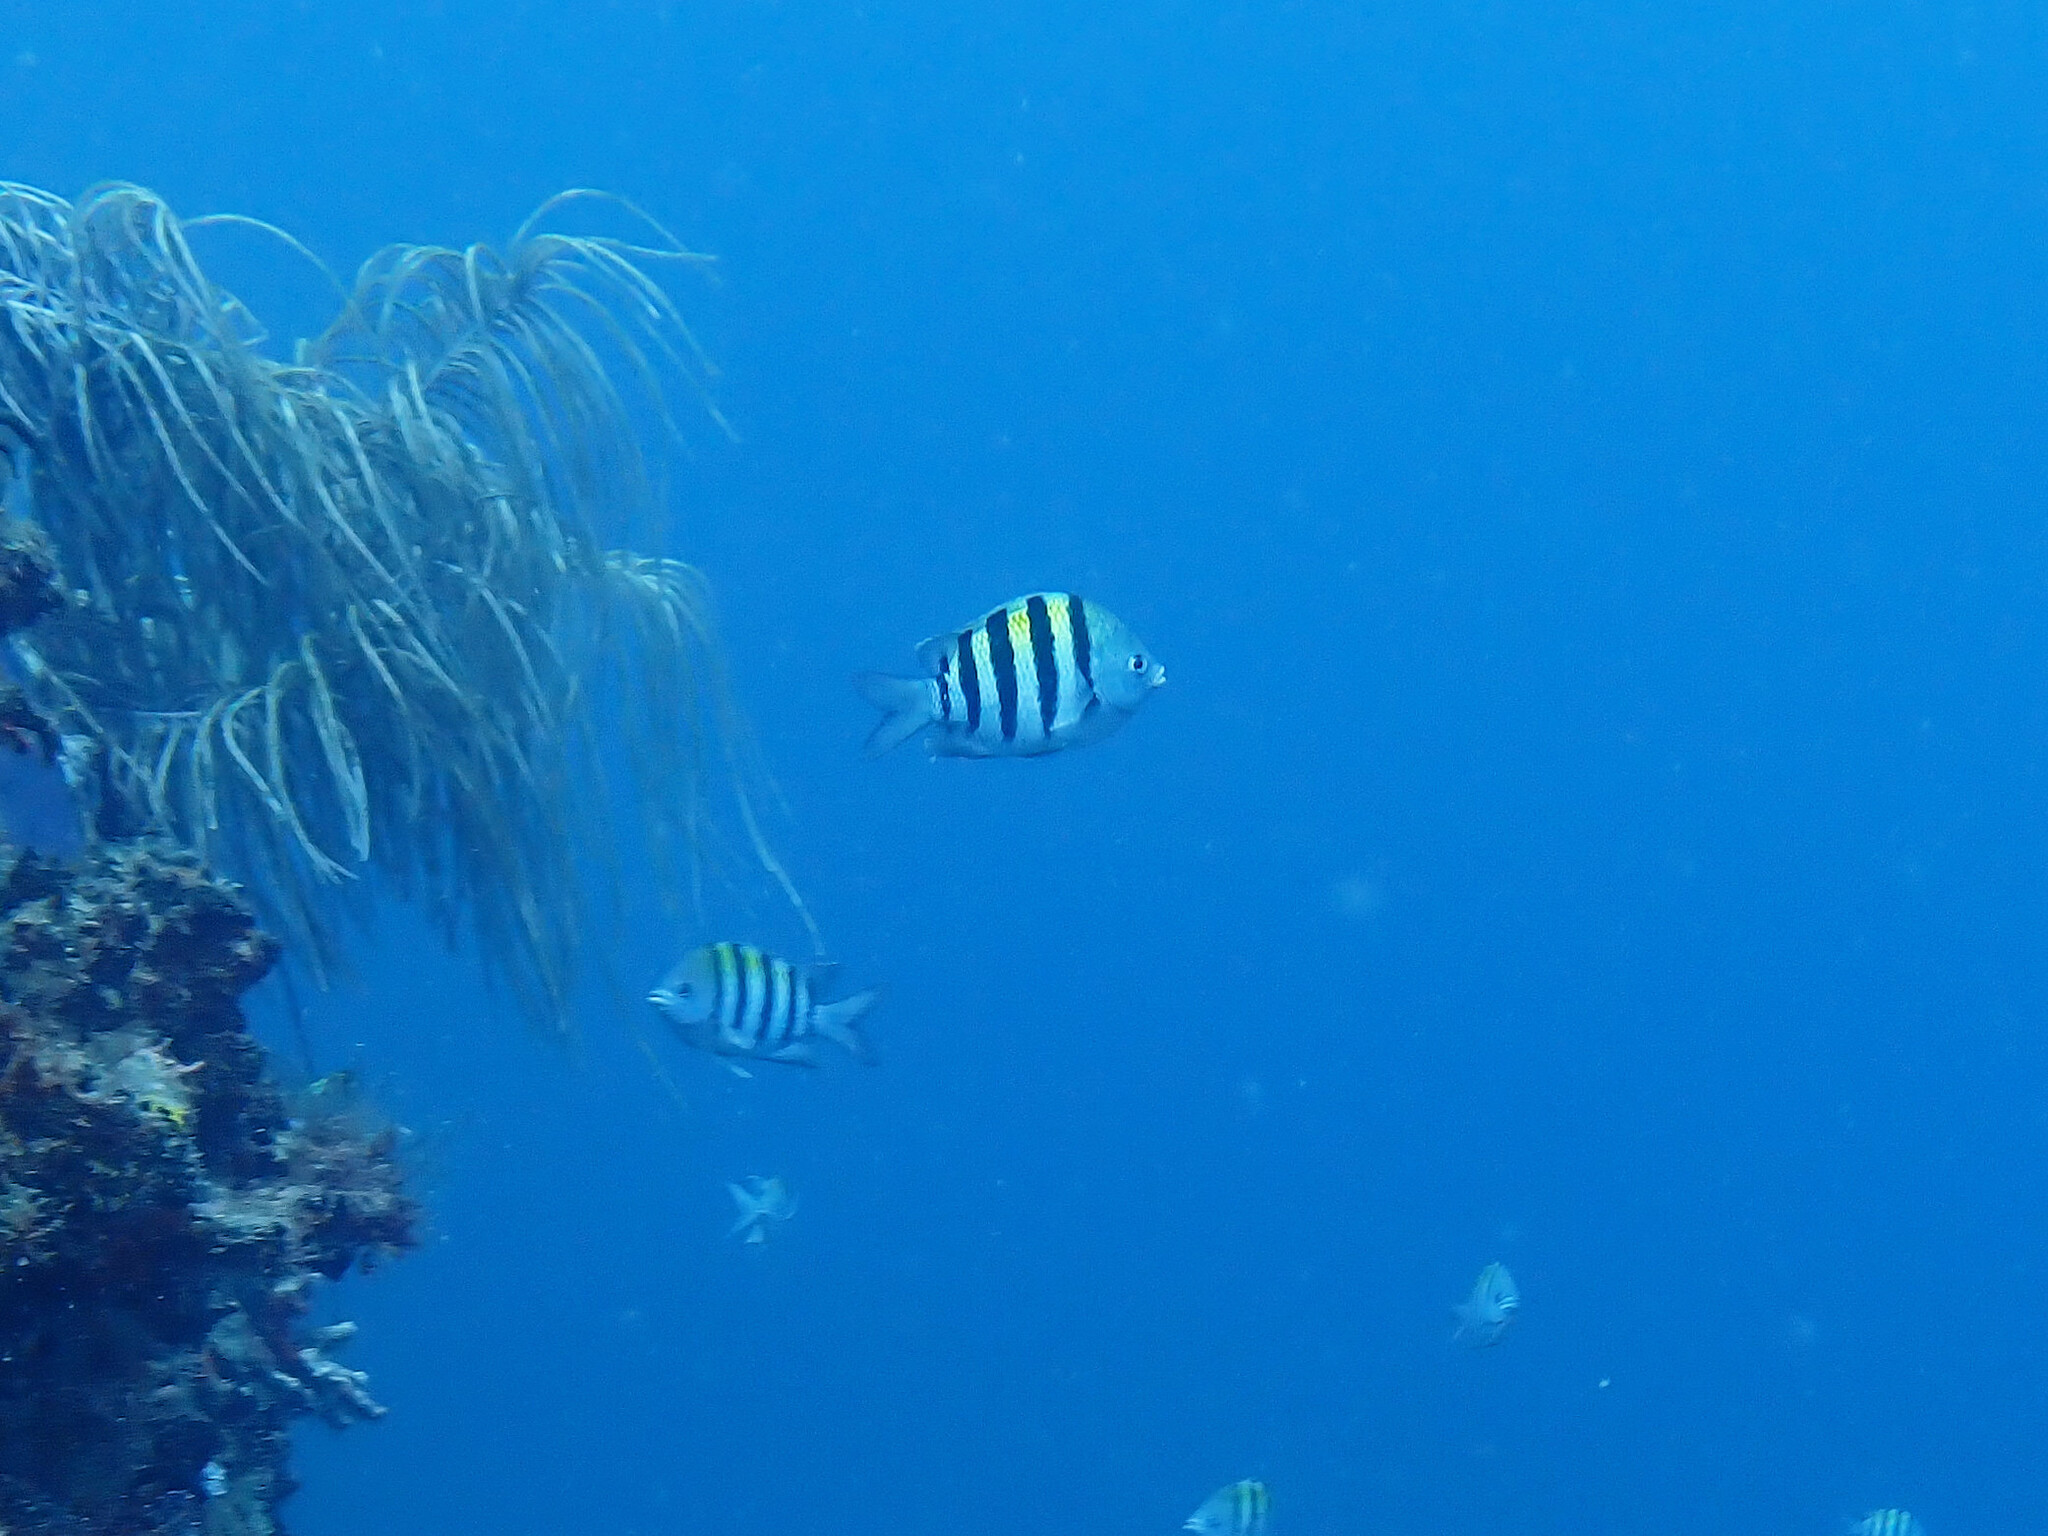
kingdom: Animalia
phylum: Chordata
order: Perciformes
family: Pomacentridae
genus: Abudefduf
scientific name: Abudefduf saxatilis
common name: Sergeant major
